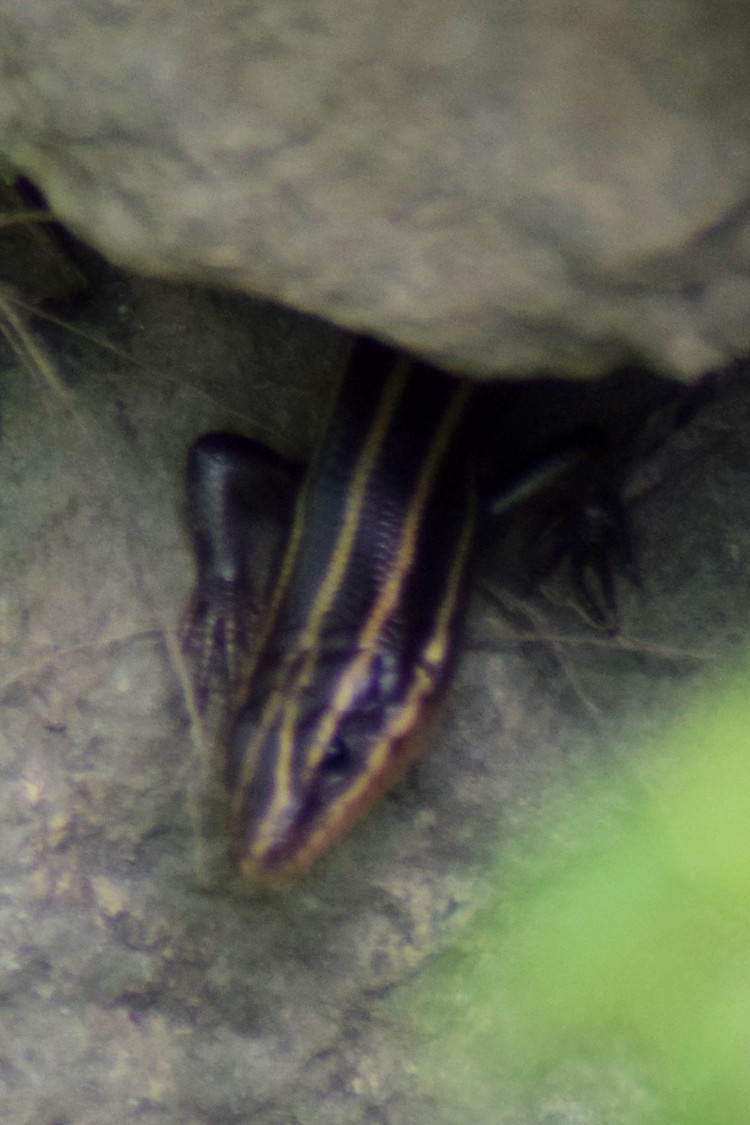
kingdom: Animalia
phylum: Chordata
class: Squamata
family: Scincidae
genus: Plestiodon
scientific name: Plestiodon fasciatus
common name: Five-lined skink
